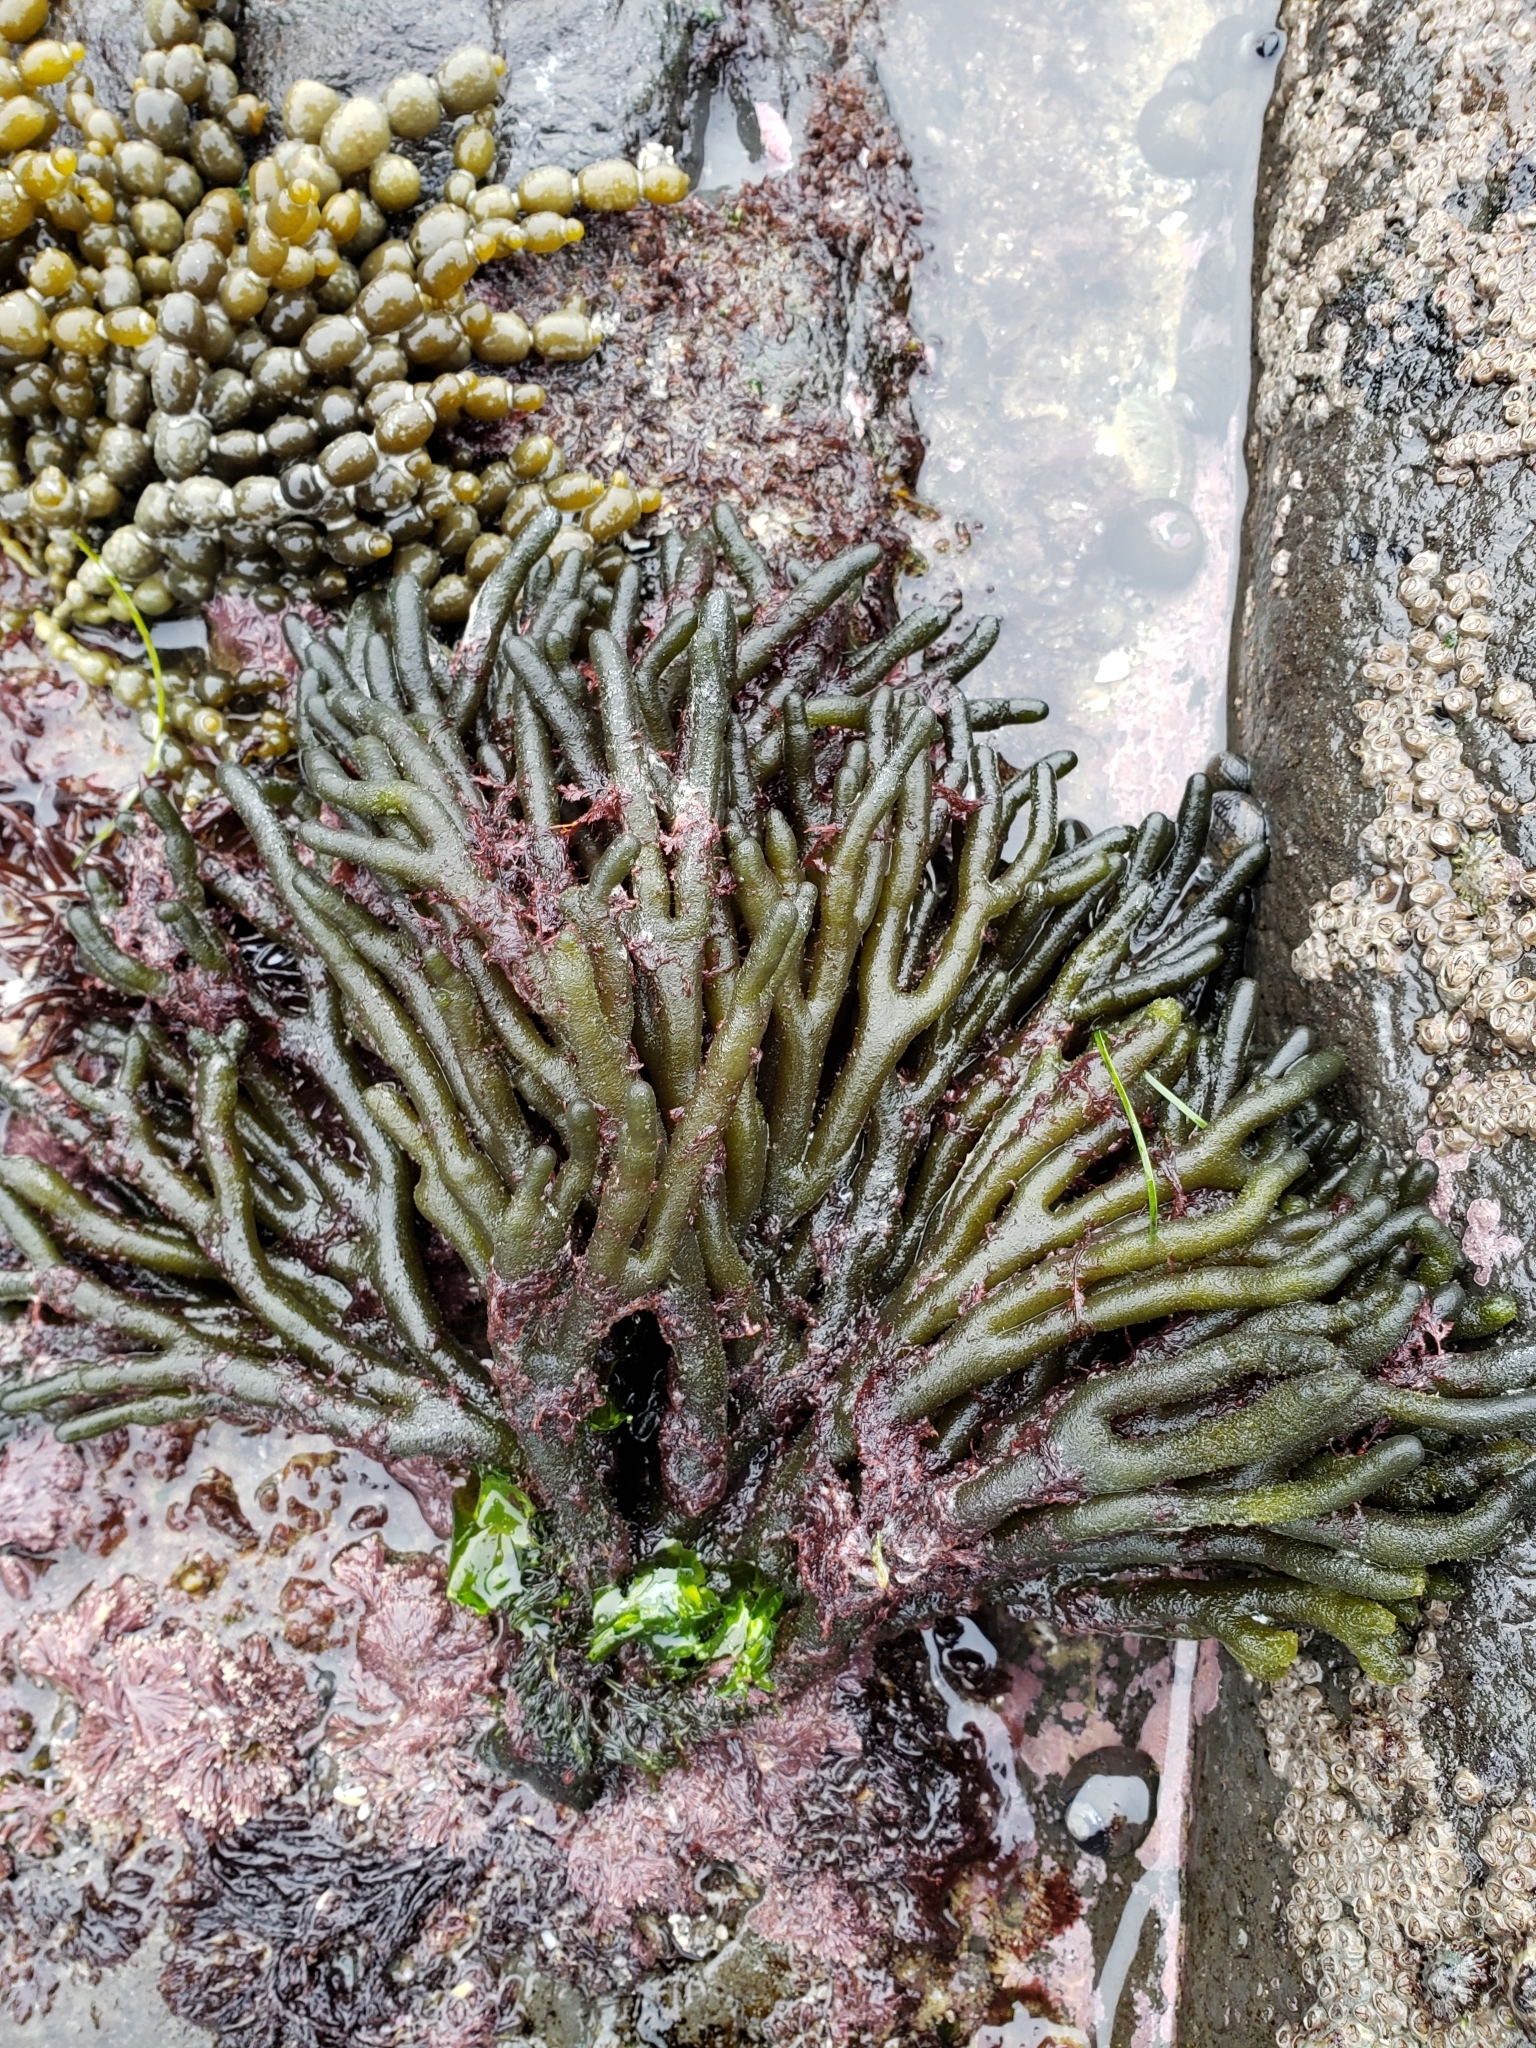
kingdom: Plantae
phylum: Chlorophyta
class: Ulvophyceae
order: Bryopsidales
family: Codiaceae
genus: Codium
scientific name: Codium fragile
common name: Dead man's fingers
